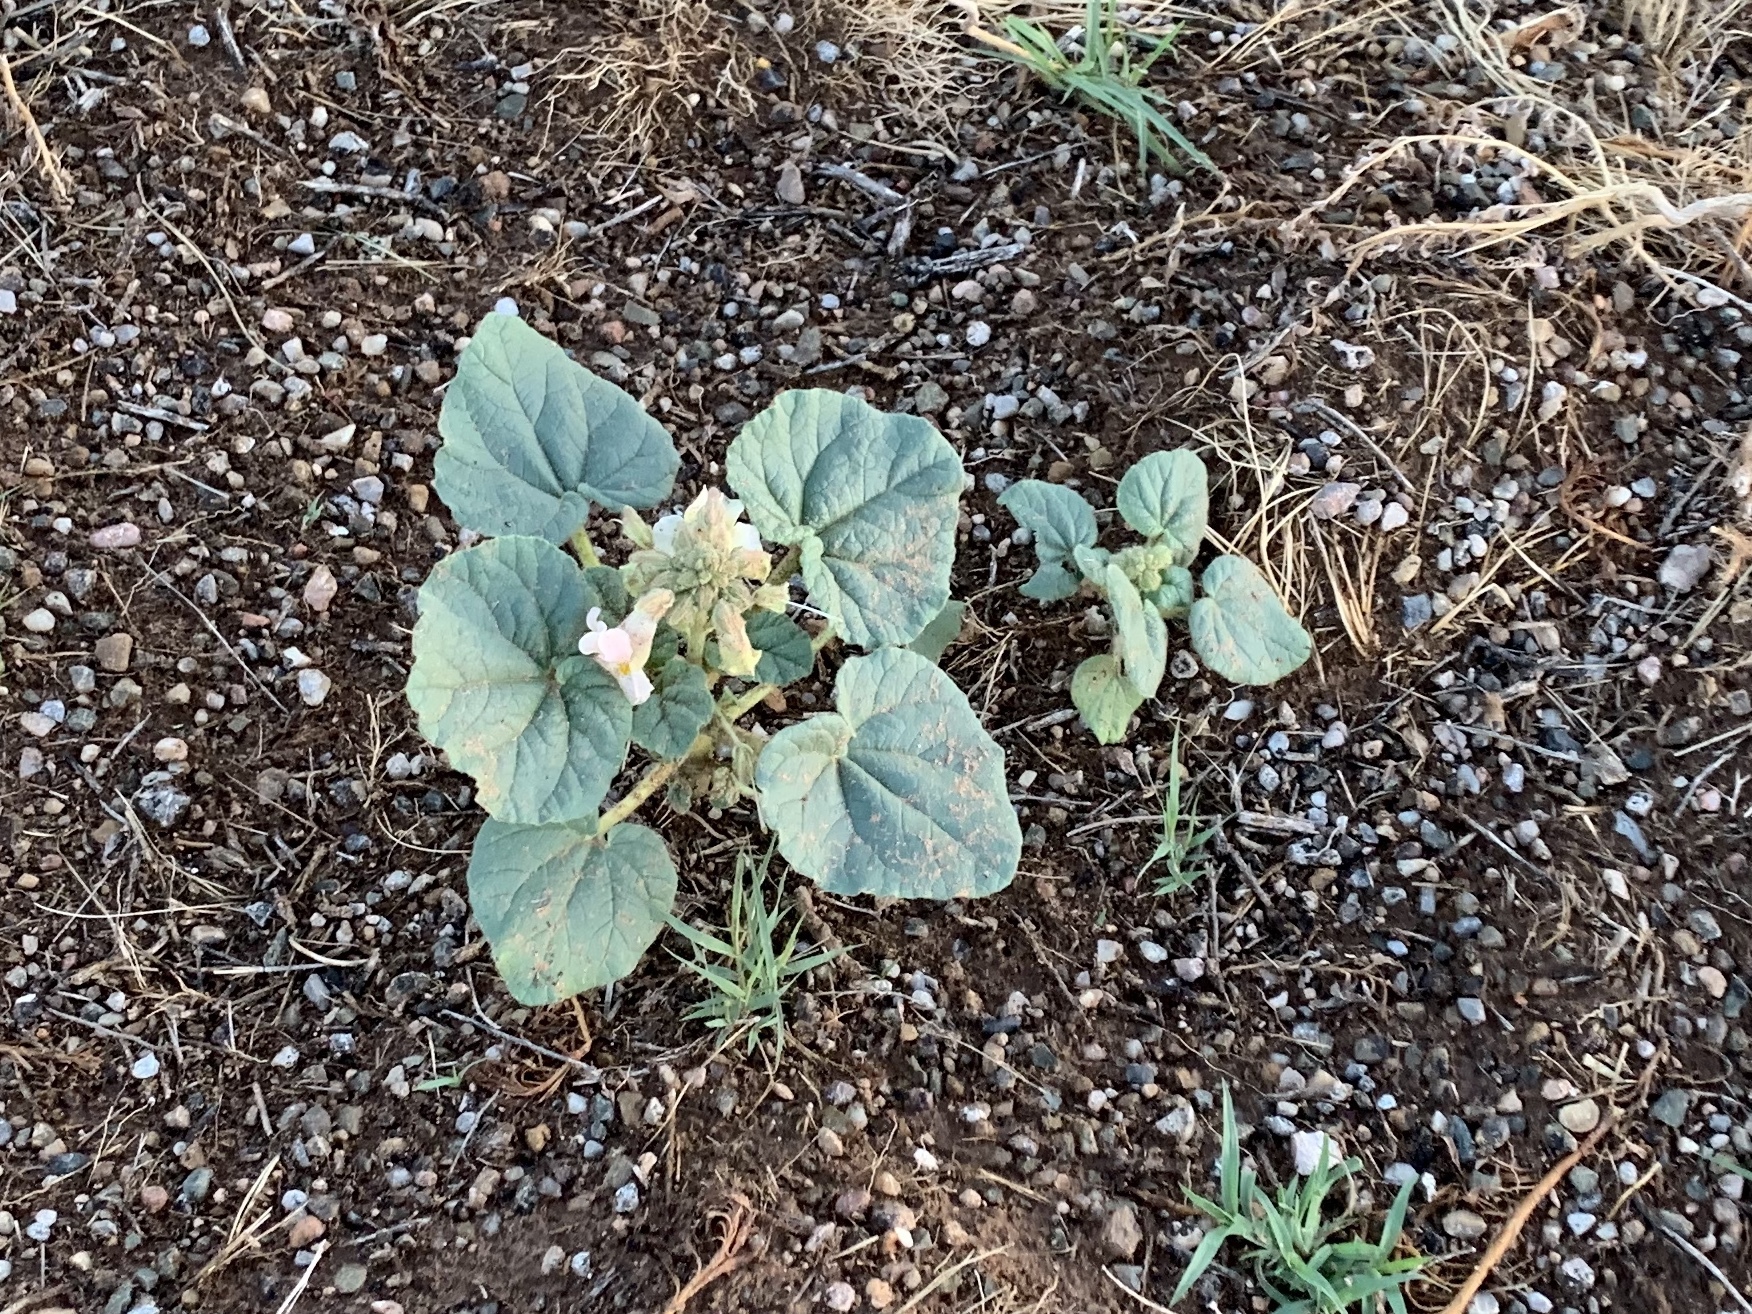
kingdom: Plantae
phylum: Tracheophyta
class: Magnoliopsida
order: Lamiales
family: Martyniaceae
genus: Proboscidea
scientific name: Proboscidea louisianica
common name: Elephant tusks
